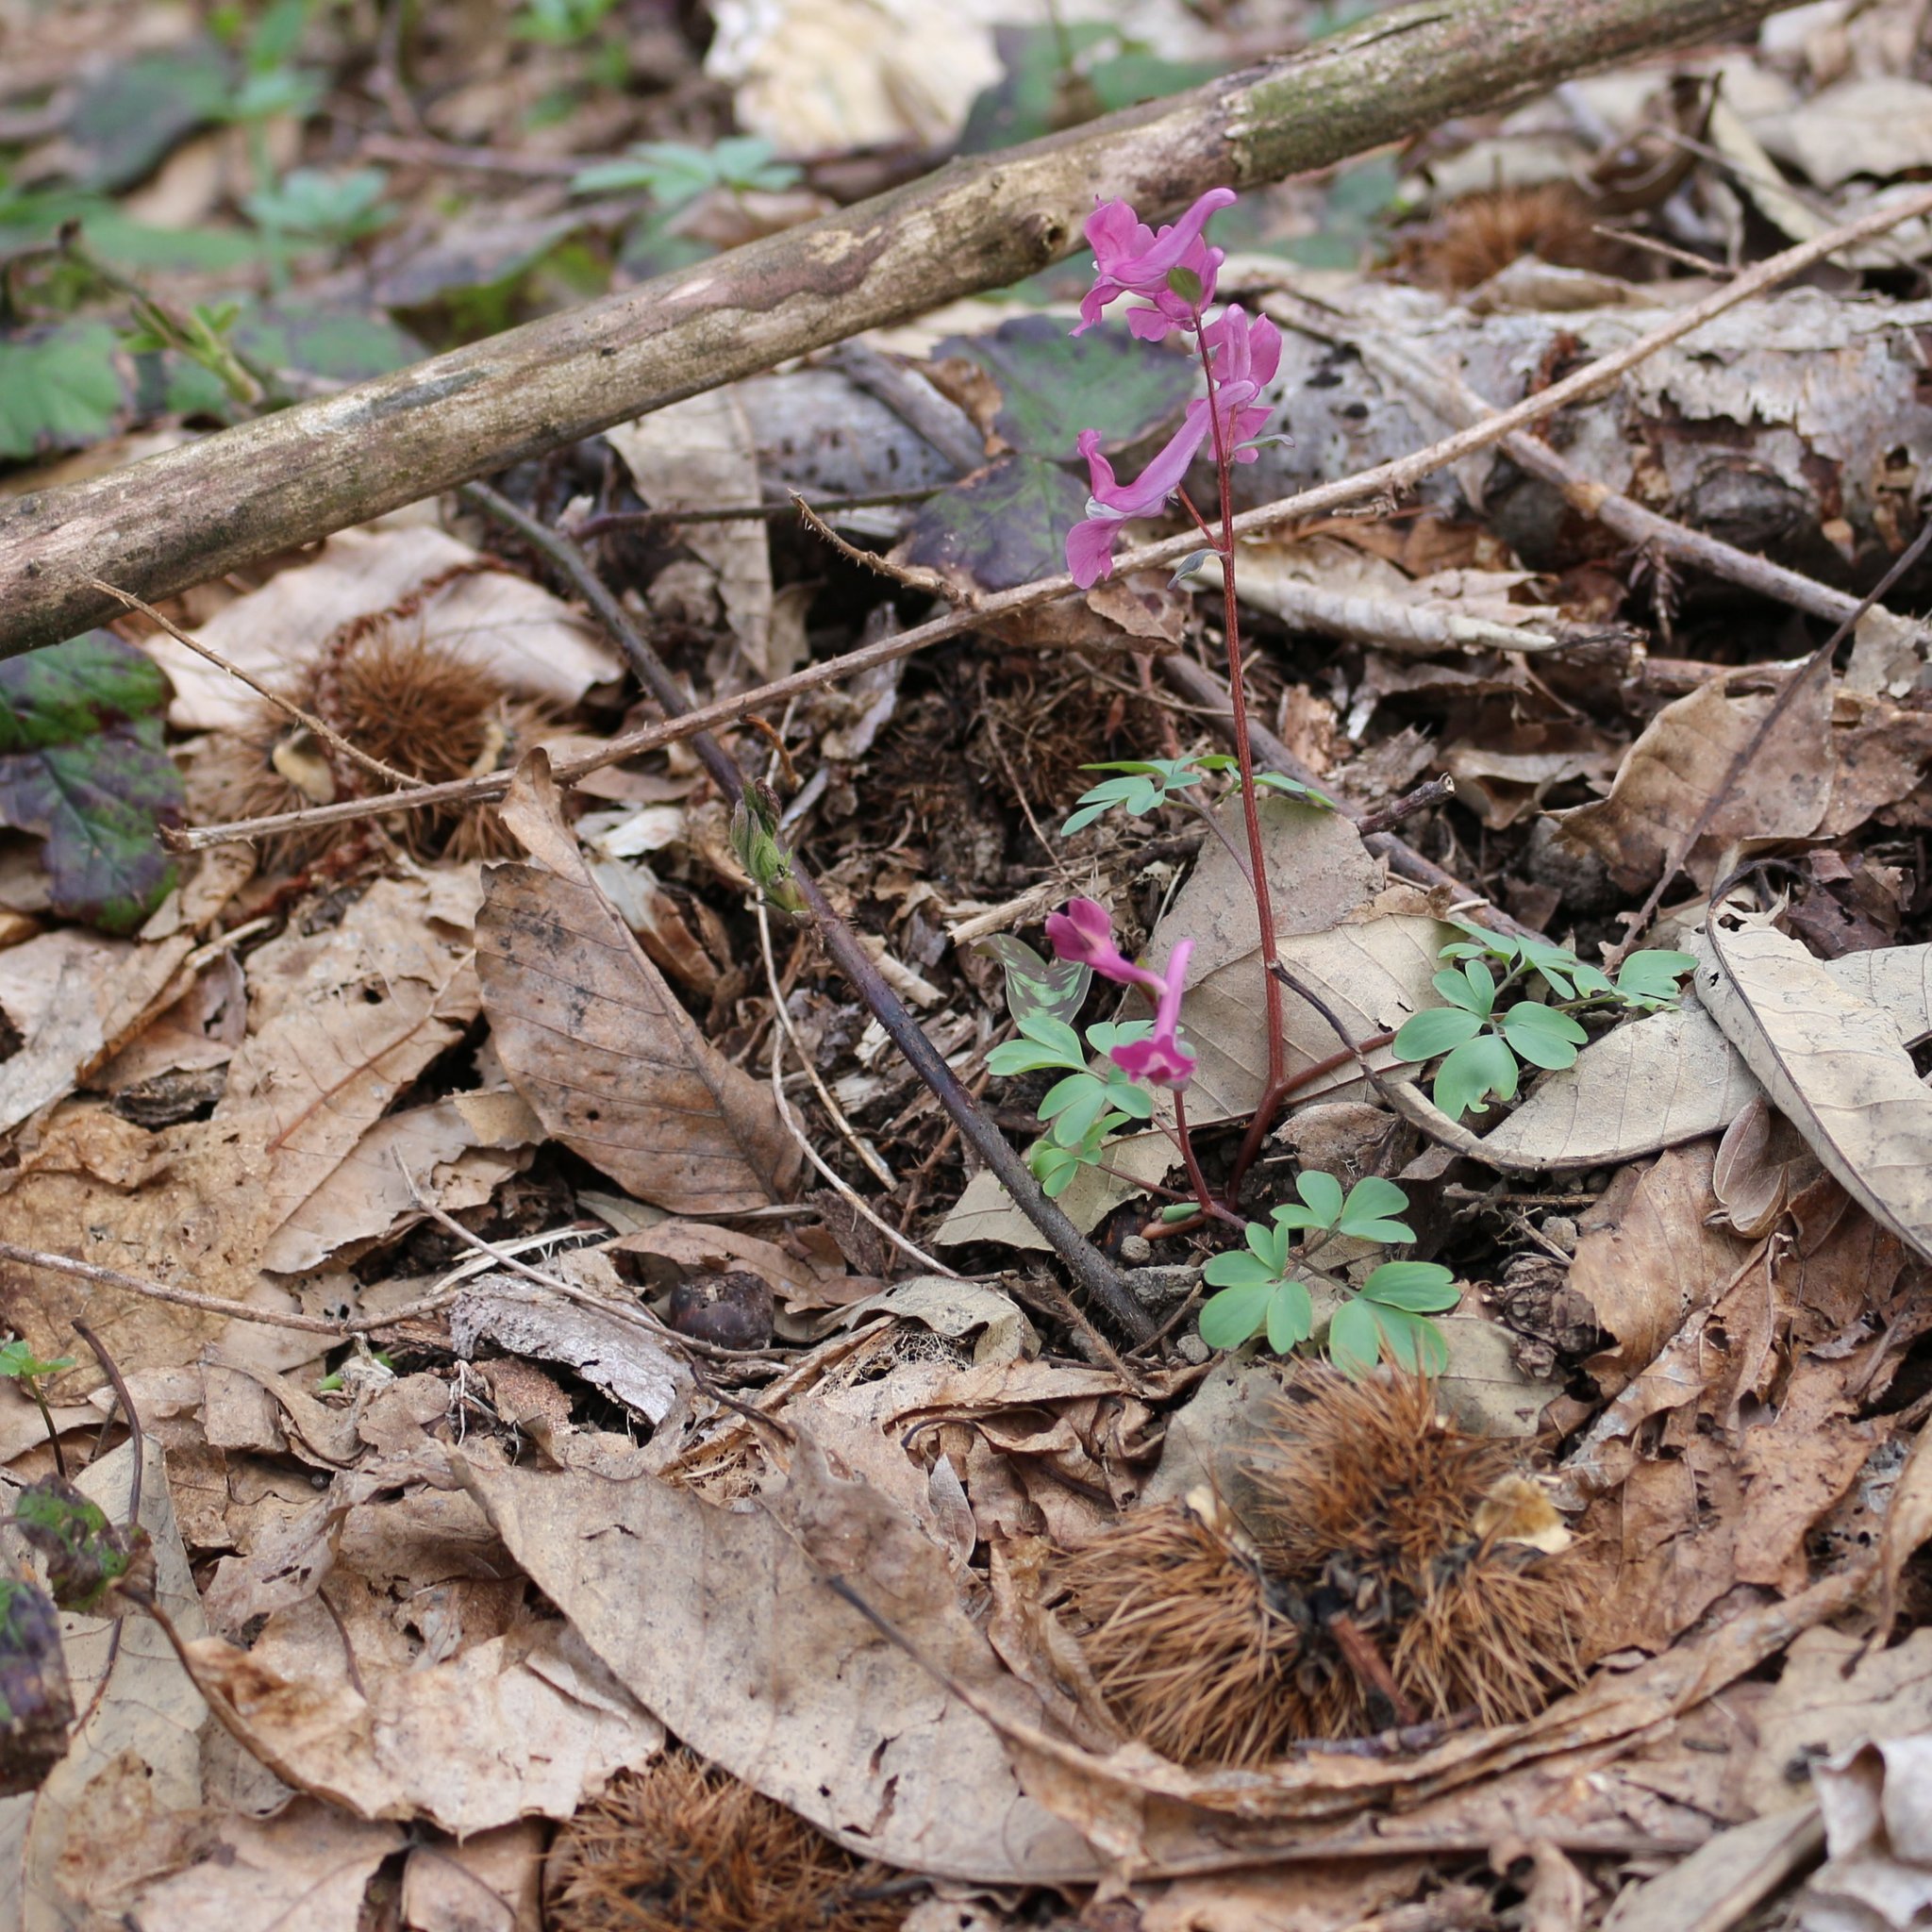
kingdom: Plantae
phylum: Tracheophyta
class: Magnoliopsida
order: Fagales
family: Fagaceae
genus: Castanea
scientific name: Castanea sativa
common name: Sweet chestnut
